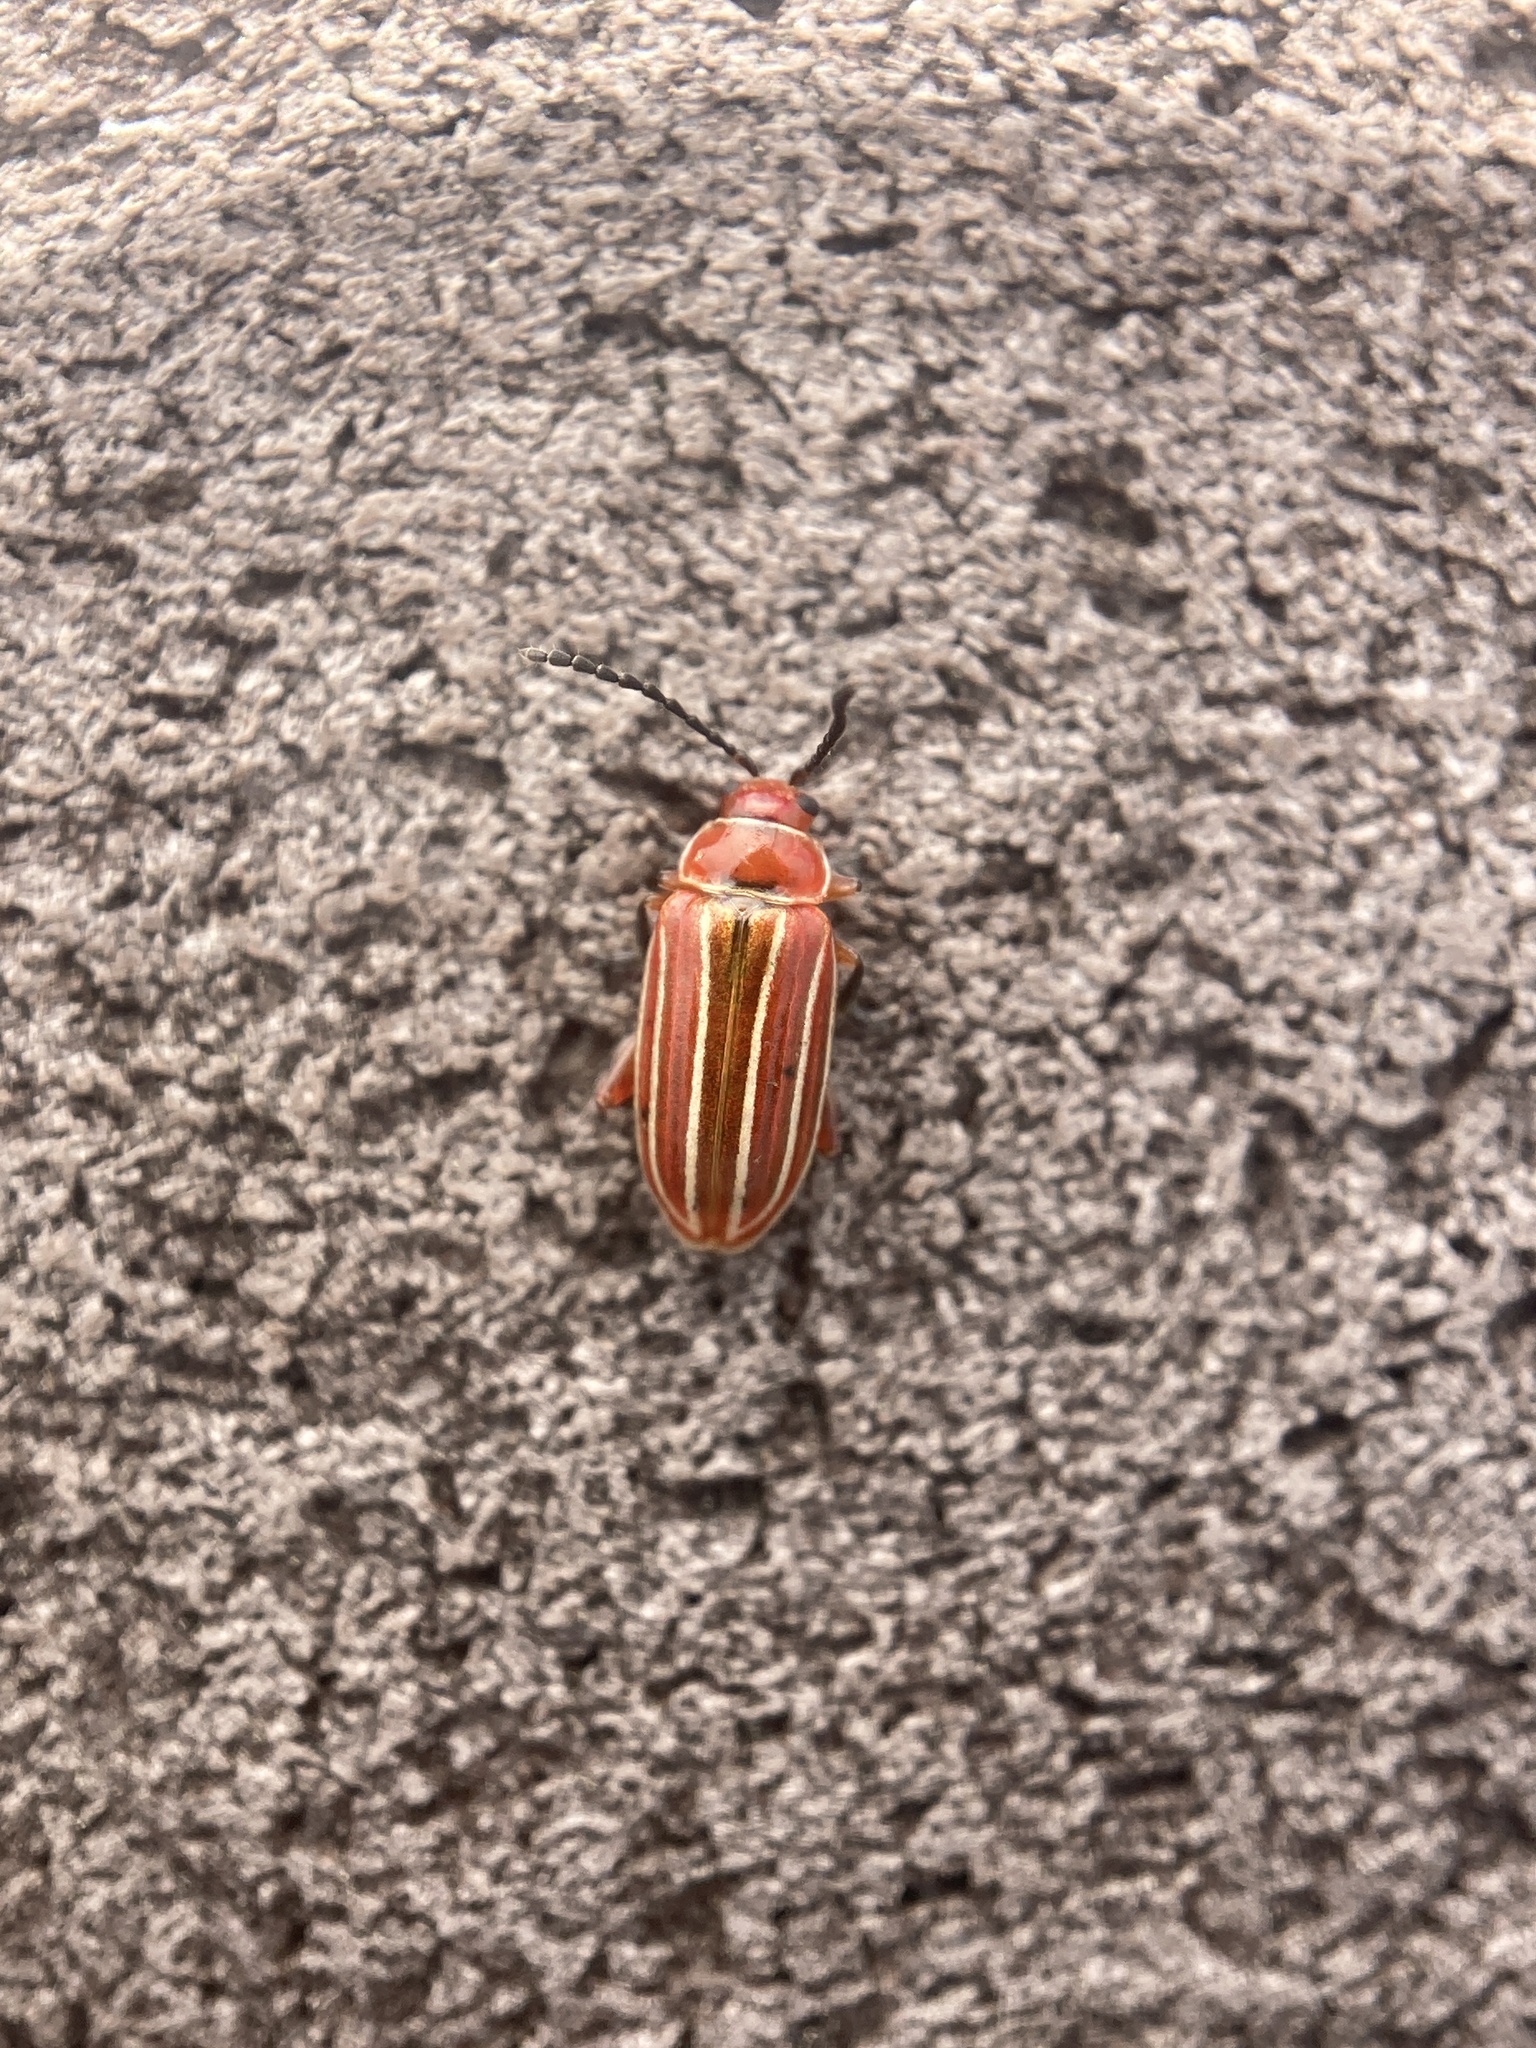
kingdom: Animalia
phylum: Arthropoda
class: Insecta
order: Coleoptera
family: Chrysomelidae
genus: Disonycha
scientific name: Disonycha conjugata
